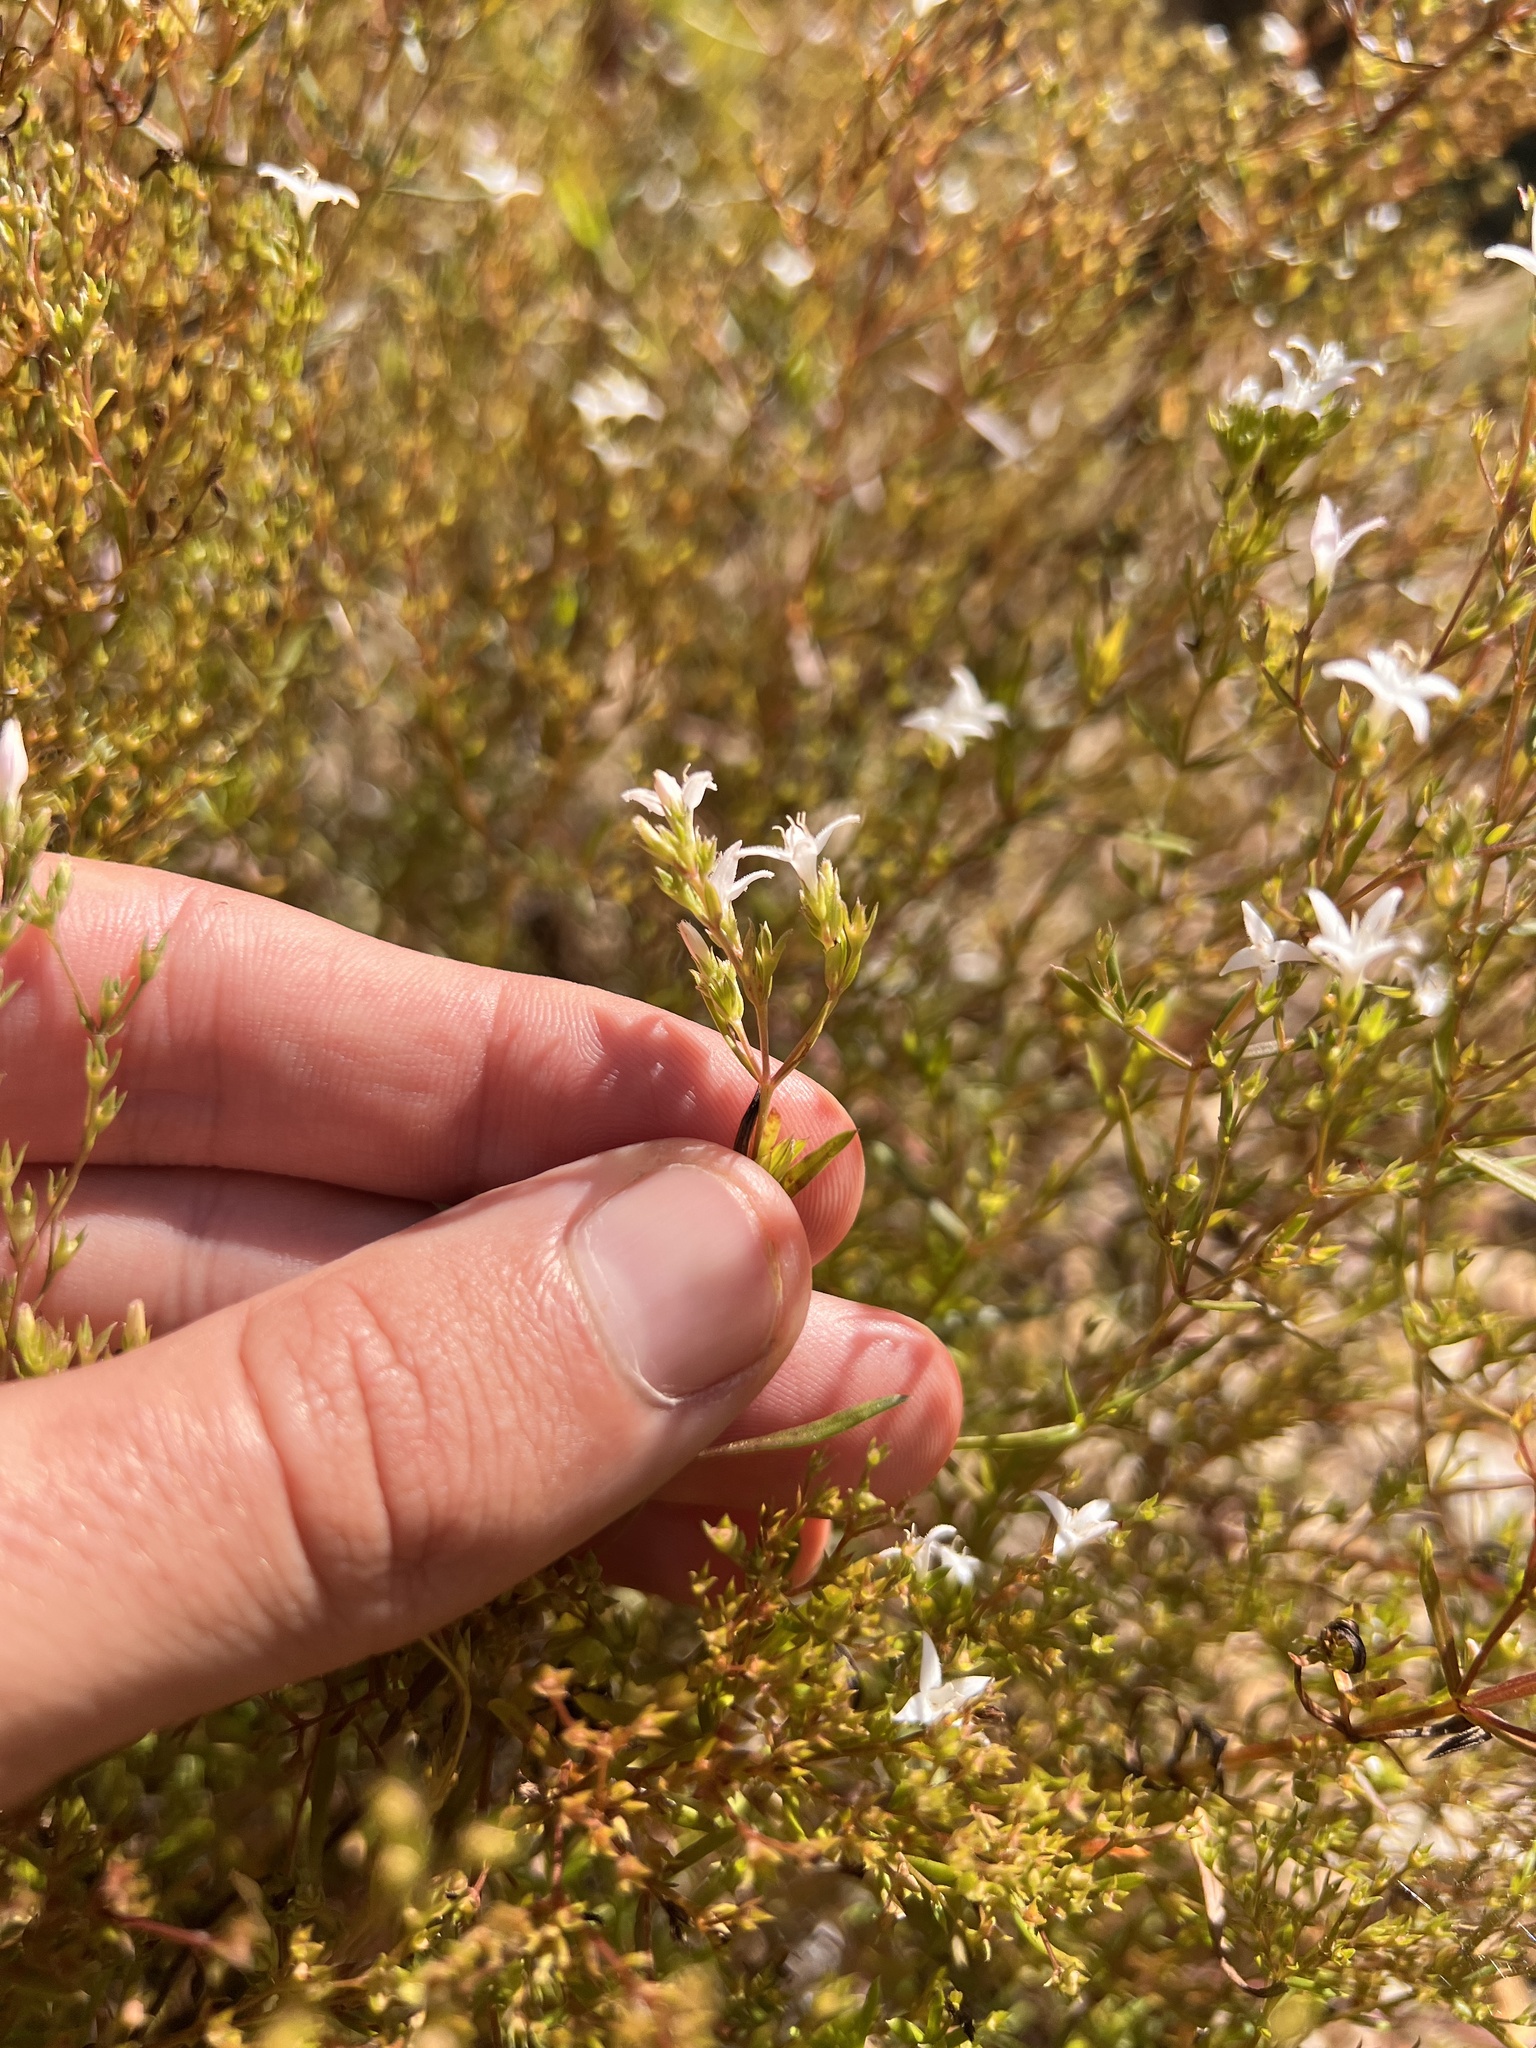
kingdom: Plantae
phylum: Tracheophyta
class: Magnoliopsida
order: Gentianales
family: Rubiaceae
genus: Stenaria
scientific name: Stenaria nigricans
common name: Diamondflowers
